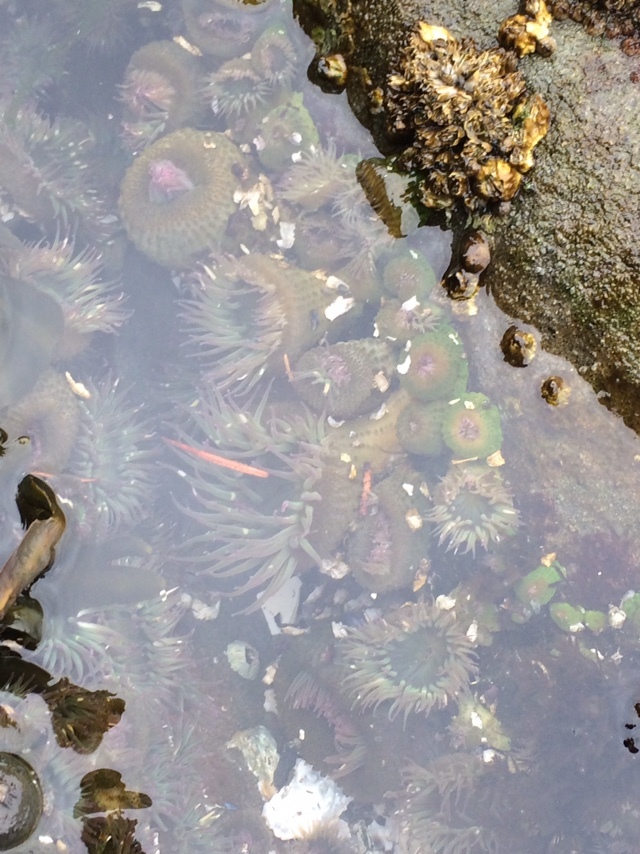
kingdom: Animalia
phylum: Cnidaria
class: Anthozoa
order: Actiniaria
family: Actiniidae
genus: Anthopleura
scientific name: Anthopleura elegantissima
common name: Clonal anemone
